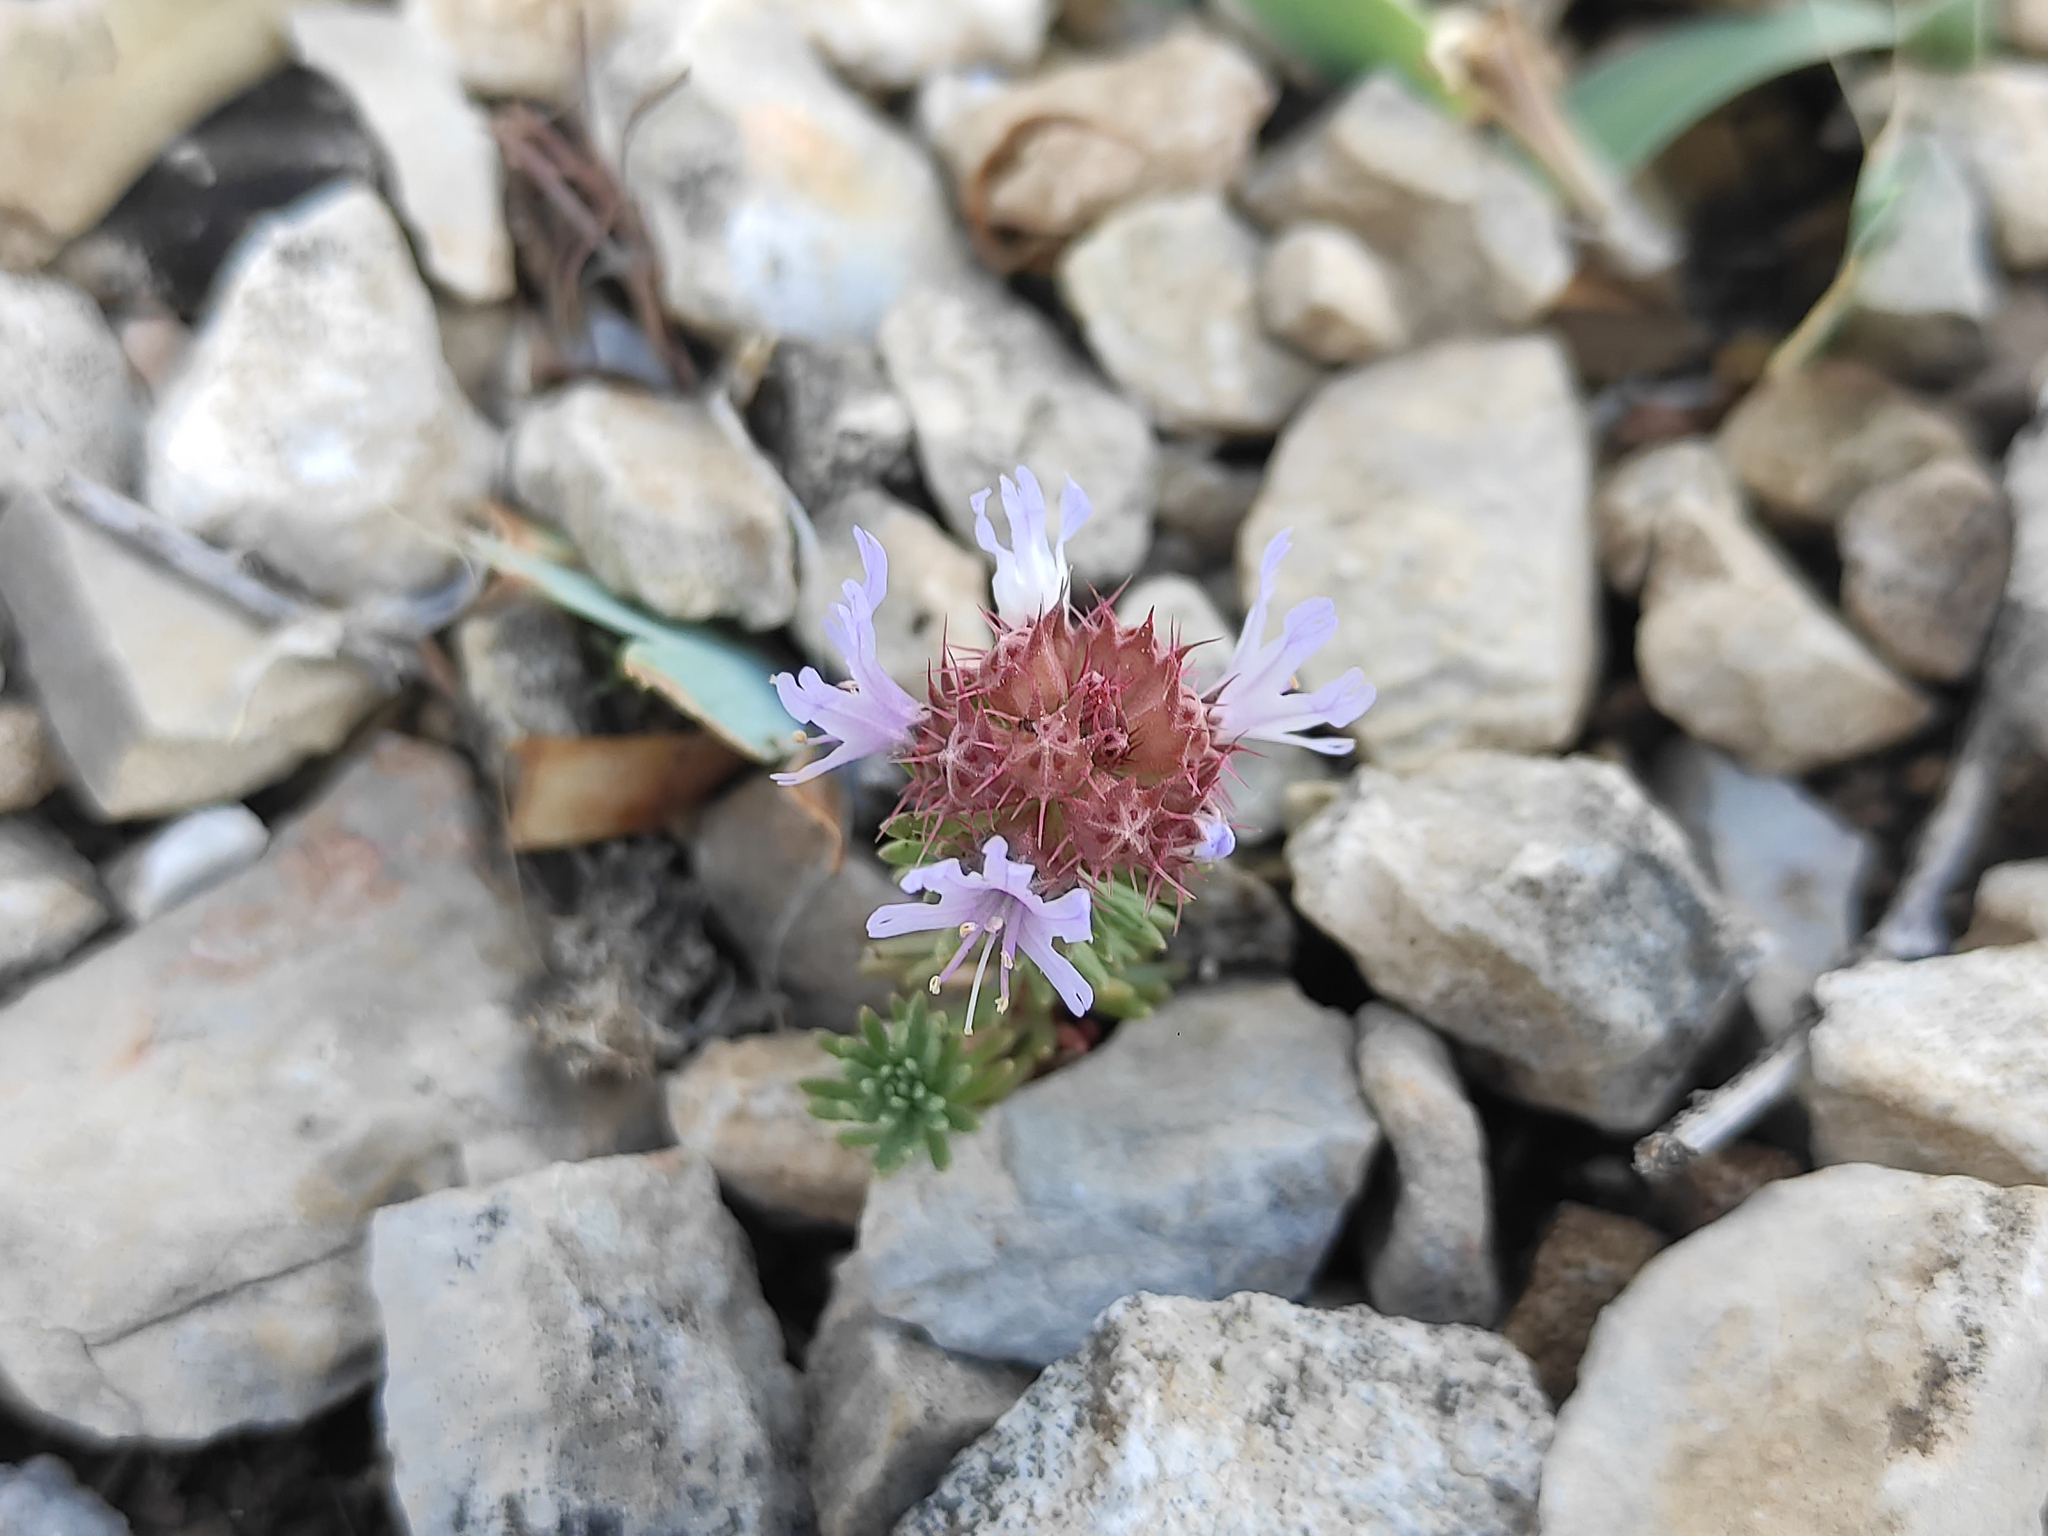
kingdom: Plantae
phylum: Tracheophyta
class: Magnoliopsida
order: Ericales
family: Primulaceae
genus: Coris
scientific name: Coris monspeliensis
